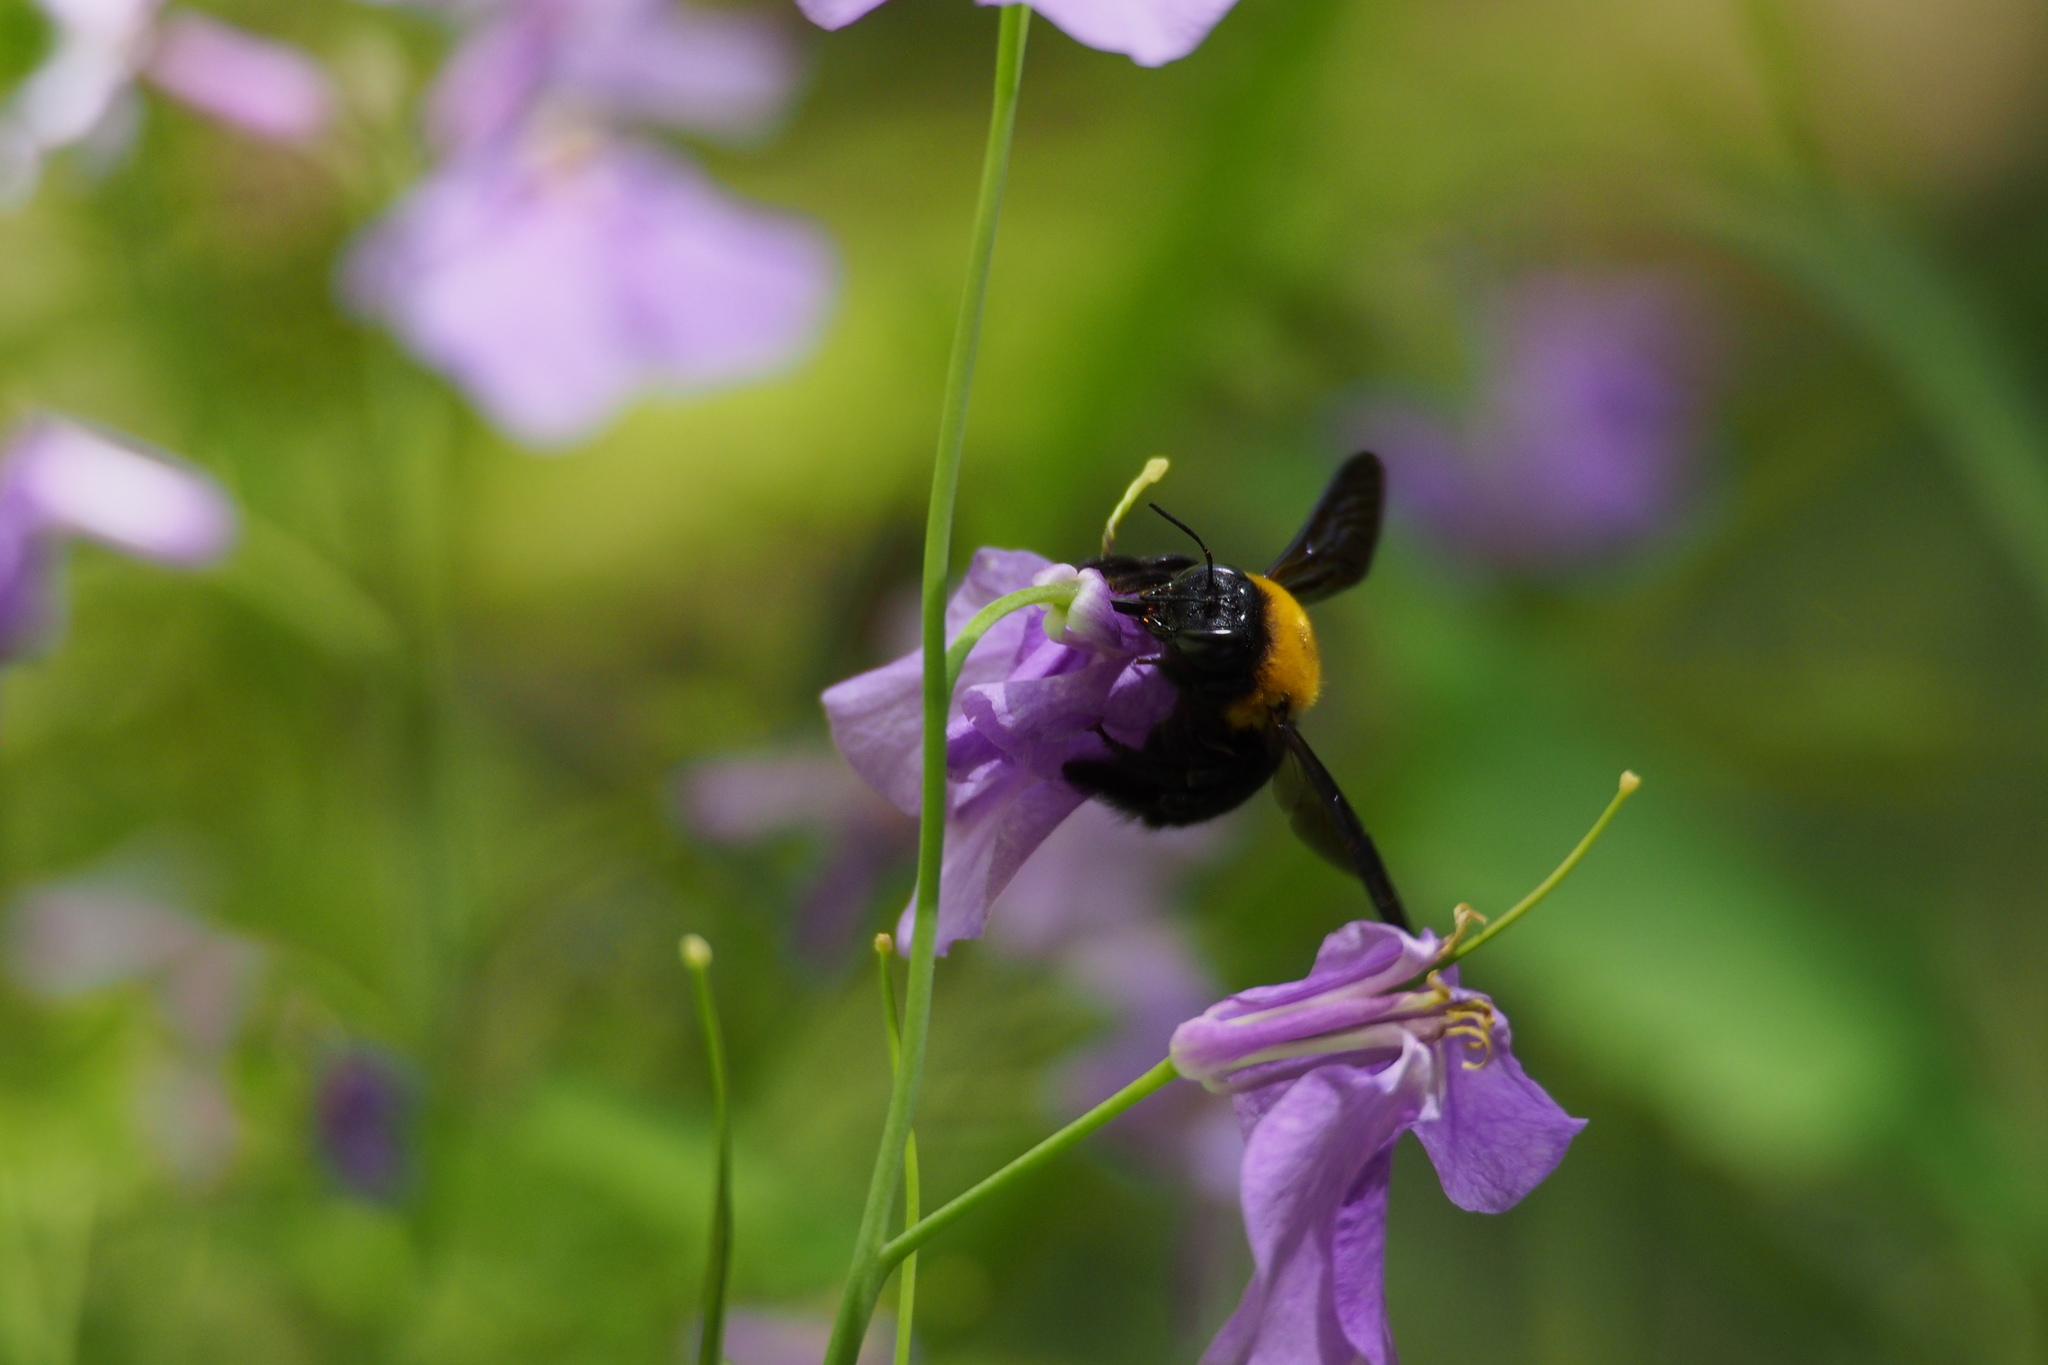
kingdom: Animalia
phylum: Arthropoda
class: Insecta
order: Hymenoptera
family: Apidae
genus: Xylocopa
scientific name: Xylocopa appendiculata
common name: Japanese carpenter bee
